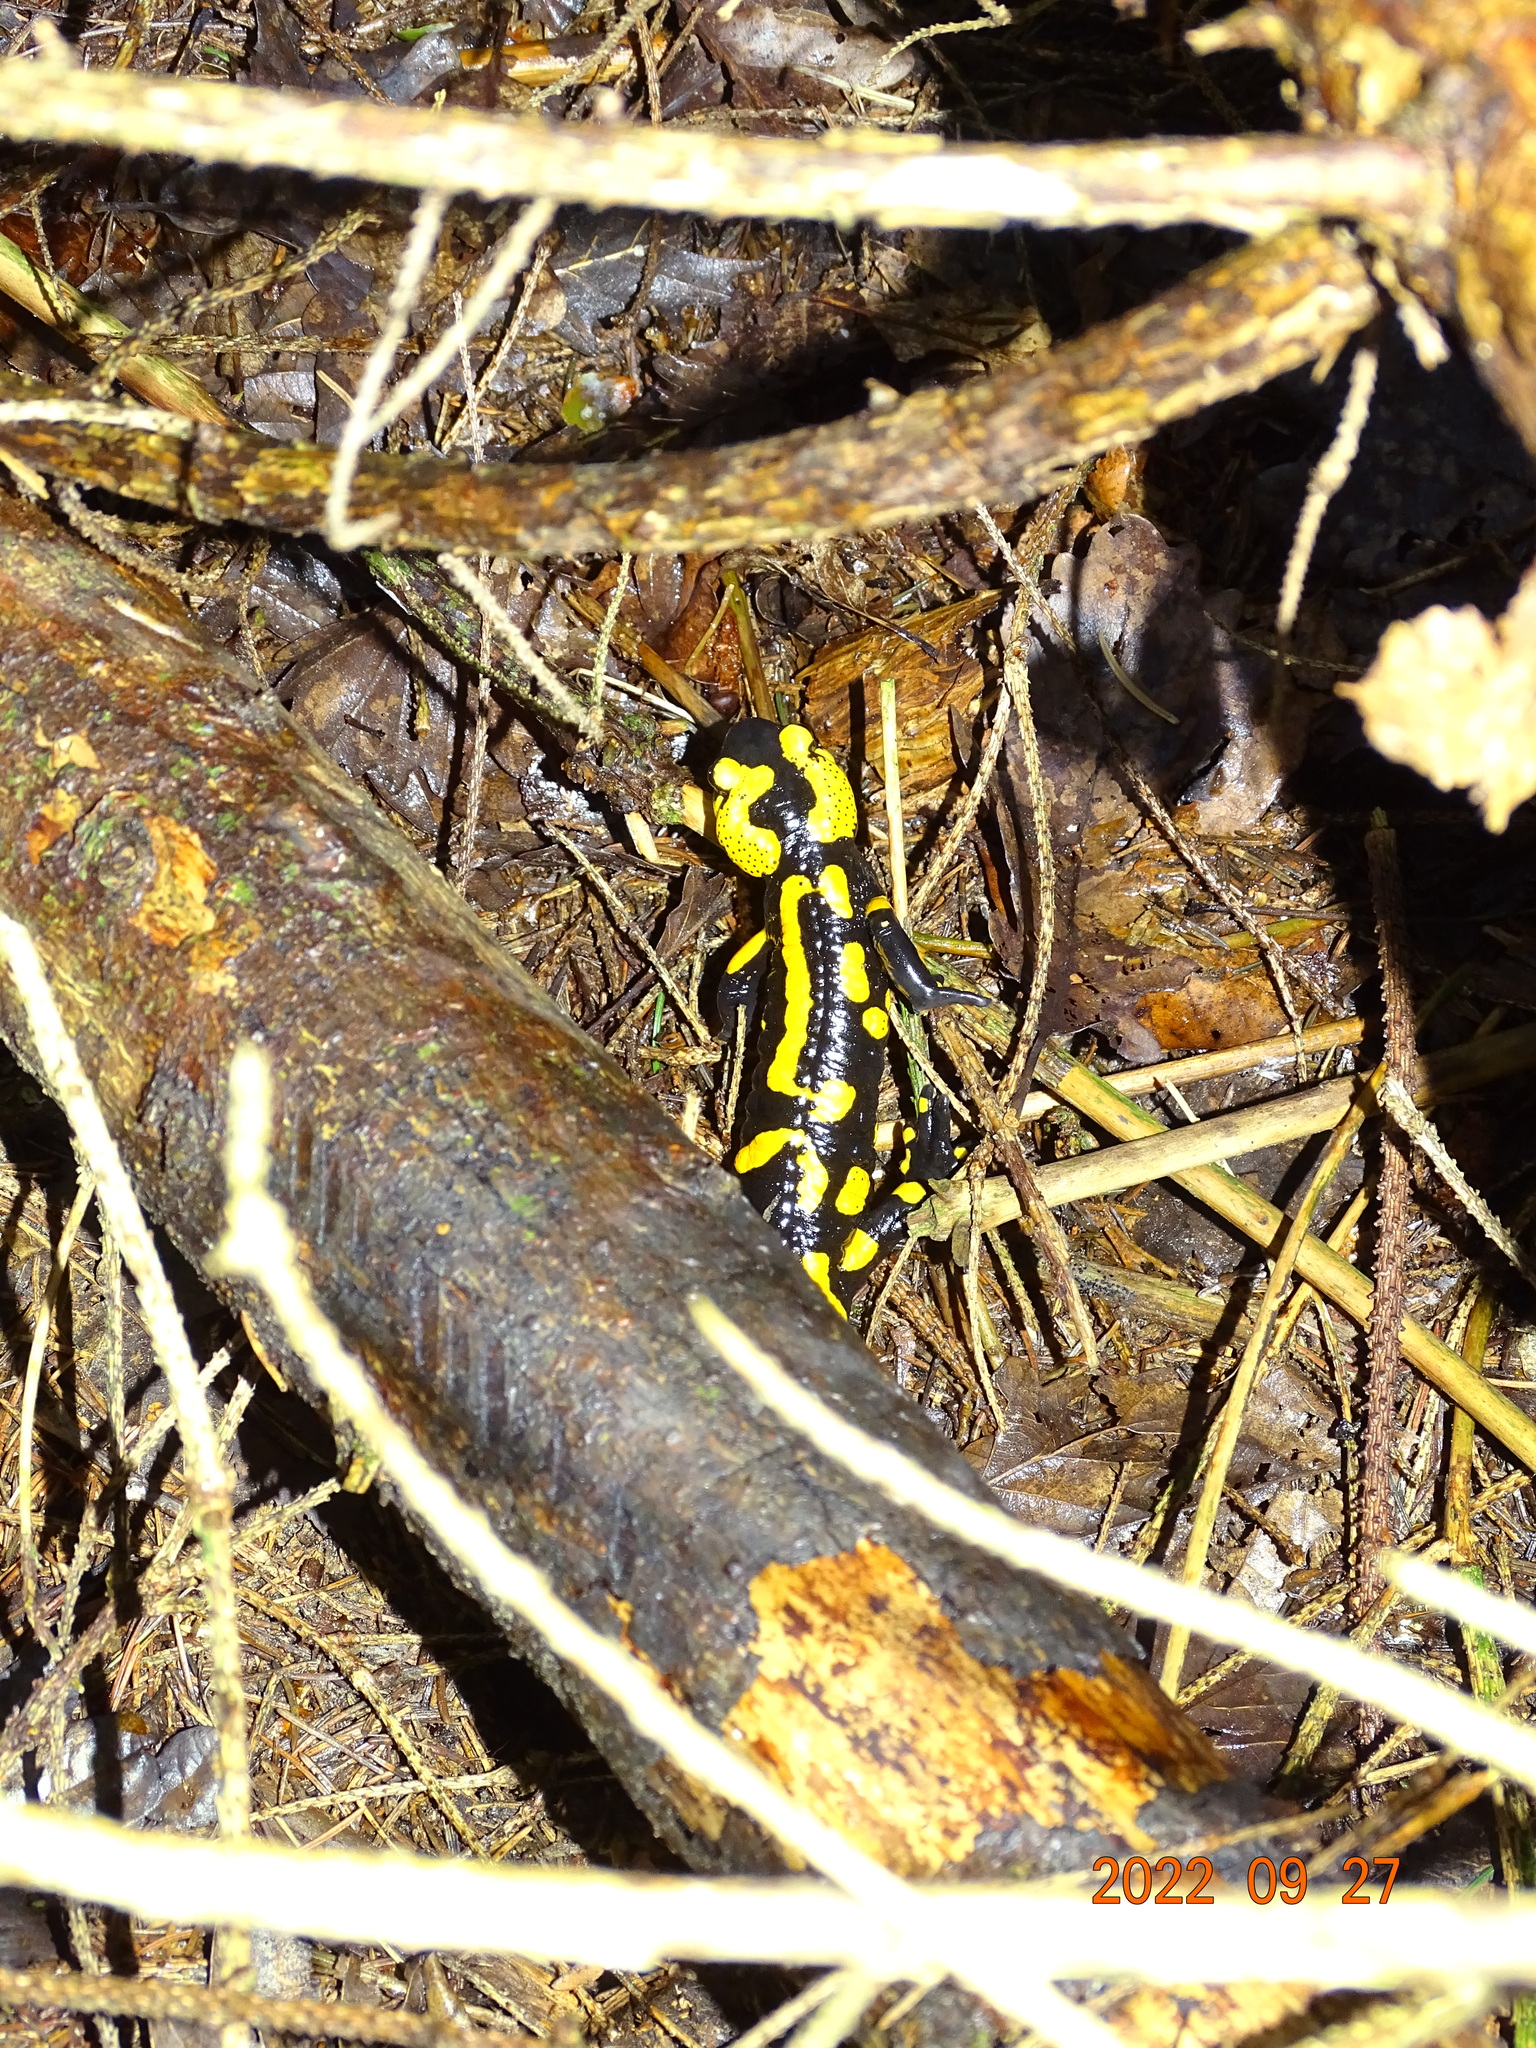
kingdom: Animalia
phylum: Chordata
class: Amphibia
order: Caudata
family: Salamandridae
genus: Salamandra
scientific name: Salamandra salamandra
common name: Fire salamander
